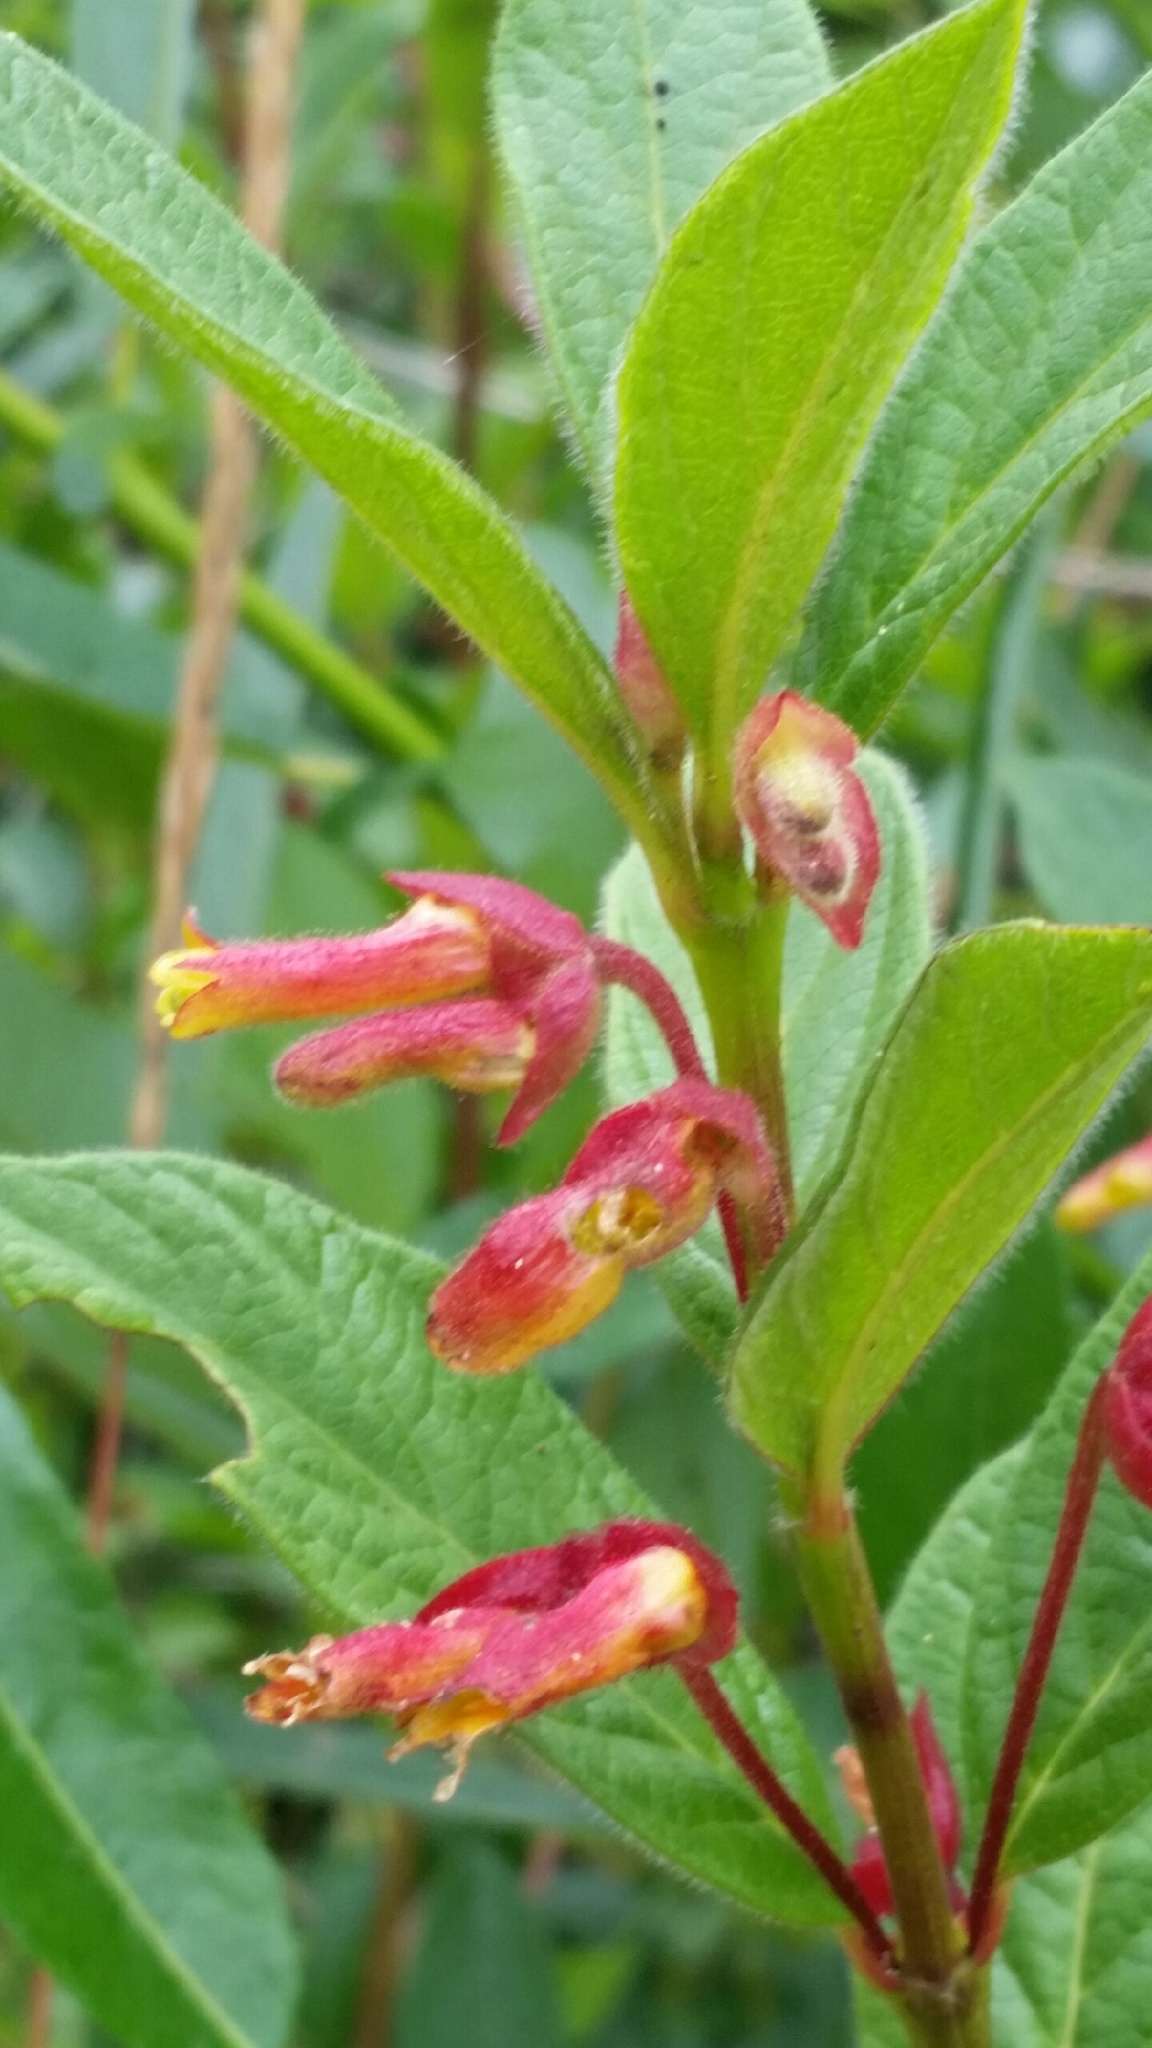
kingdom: Plantae
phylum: Tracheophyta
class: Magnoliopsida
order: Dipsacales
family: Caprifoliaceae
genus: Lonicera
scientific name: Lonicera involucrata
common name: Californian honeysuckle
